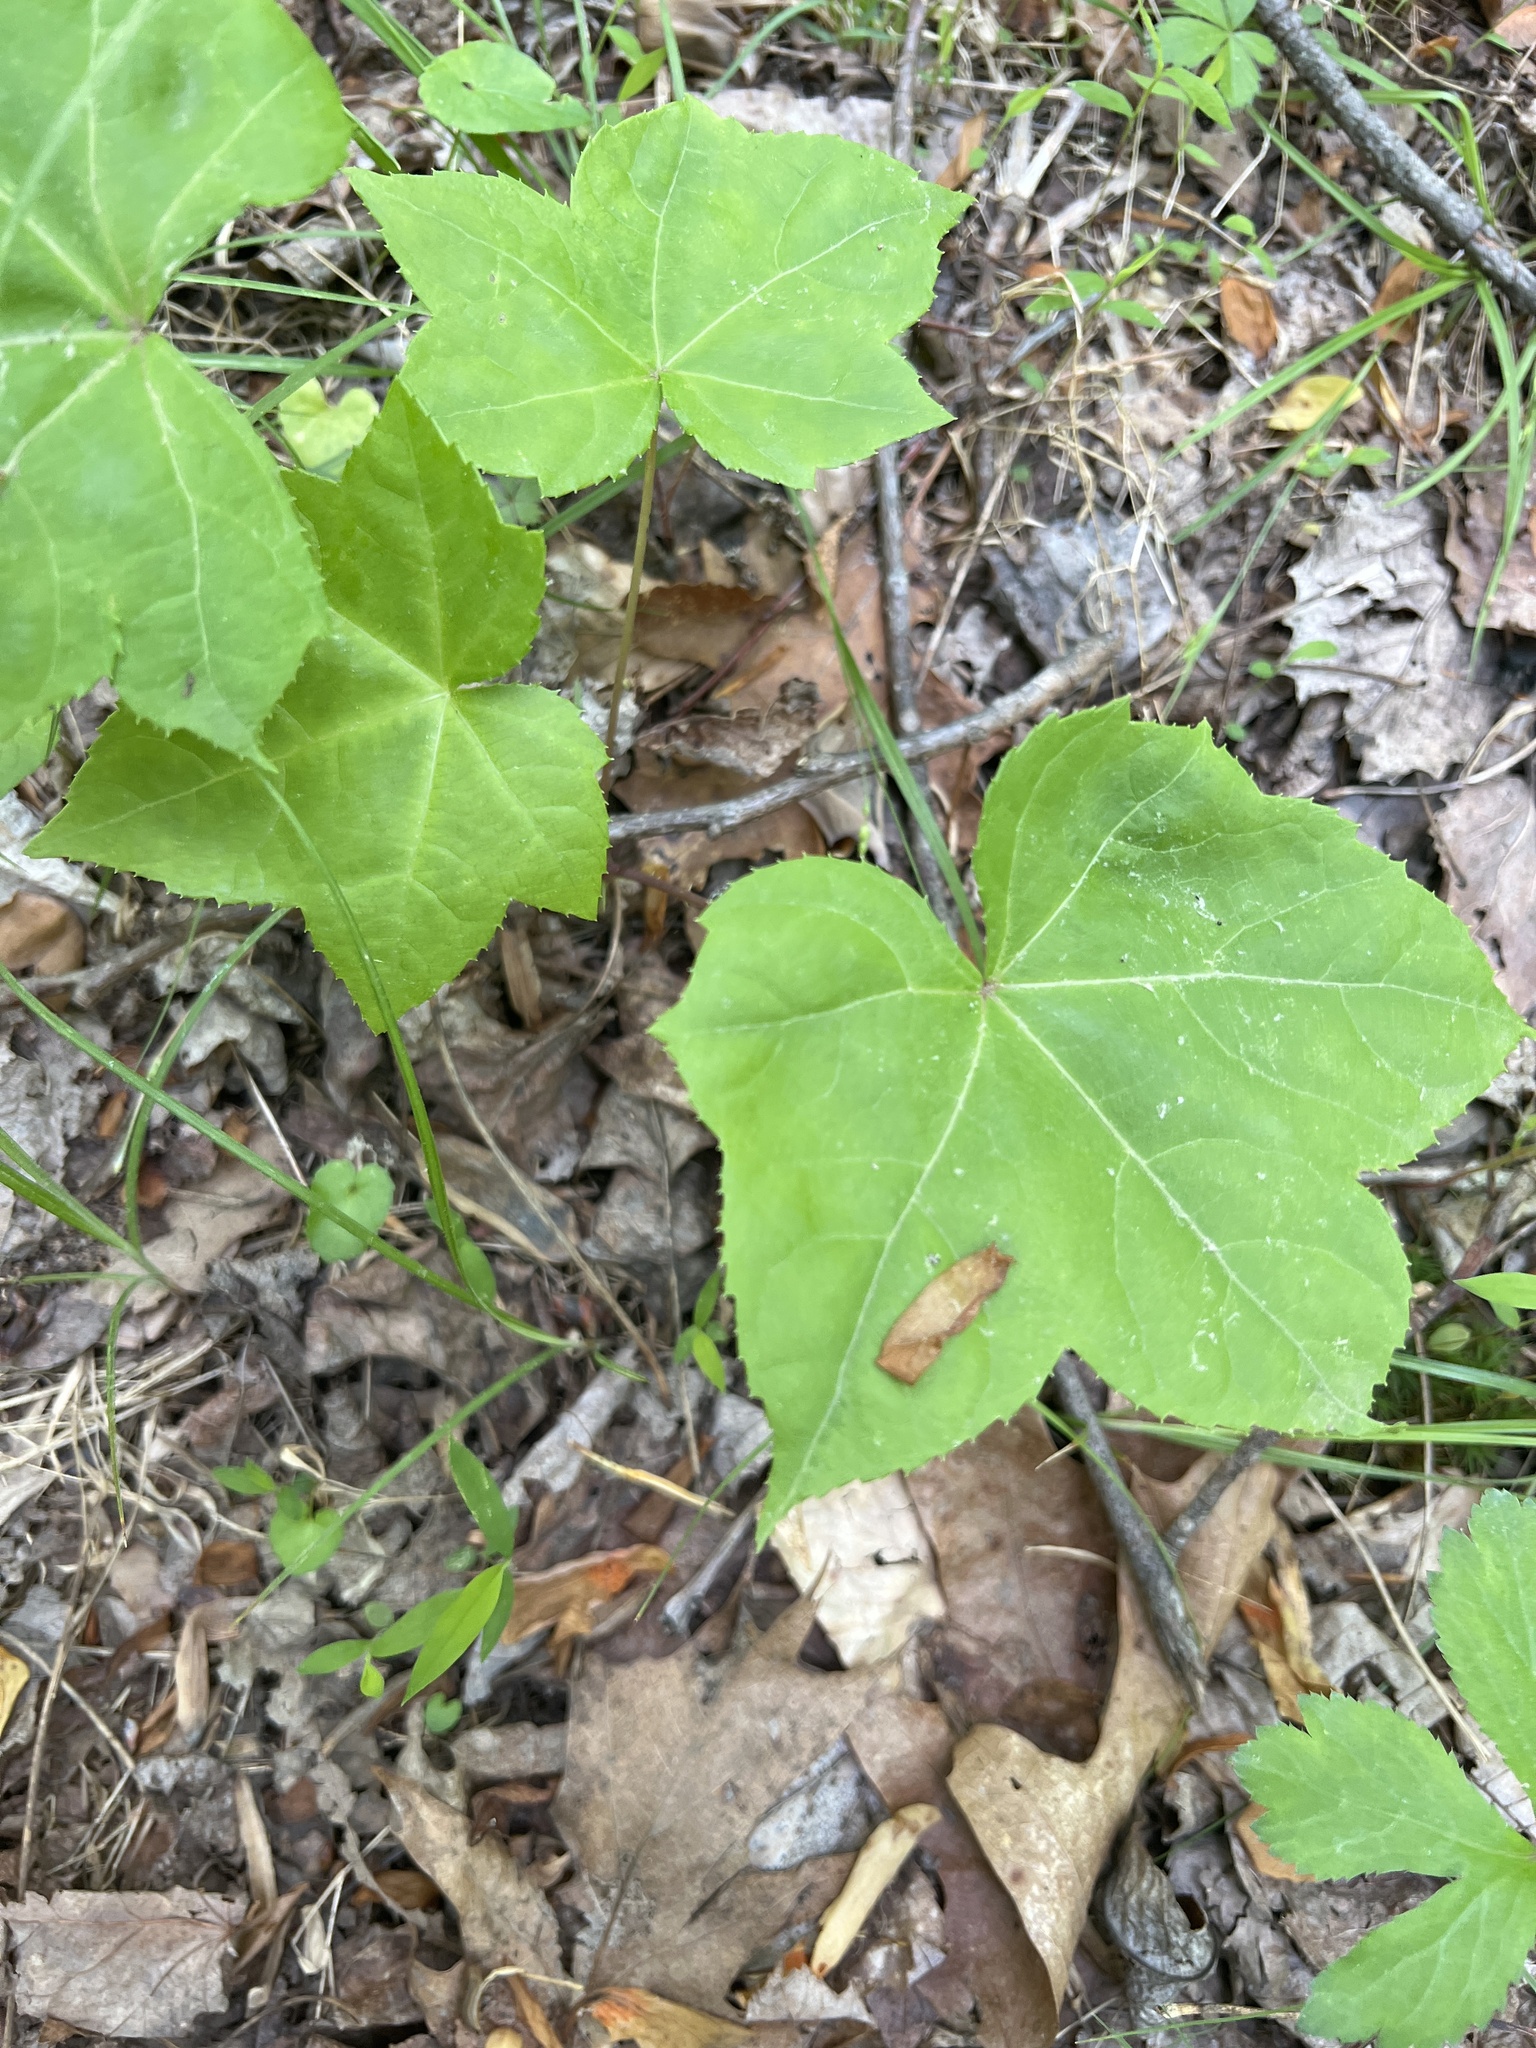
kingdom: Plantae
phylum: Tracheophyta
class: Magnoliopsida
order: Apiales
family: Araliaceae
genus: Kalopanax
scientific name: Kalopanax septemlobus
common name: Castor aralia
